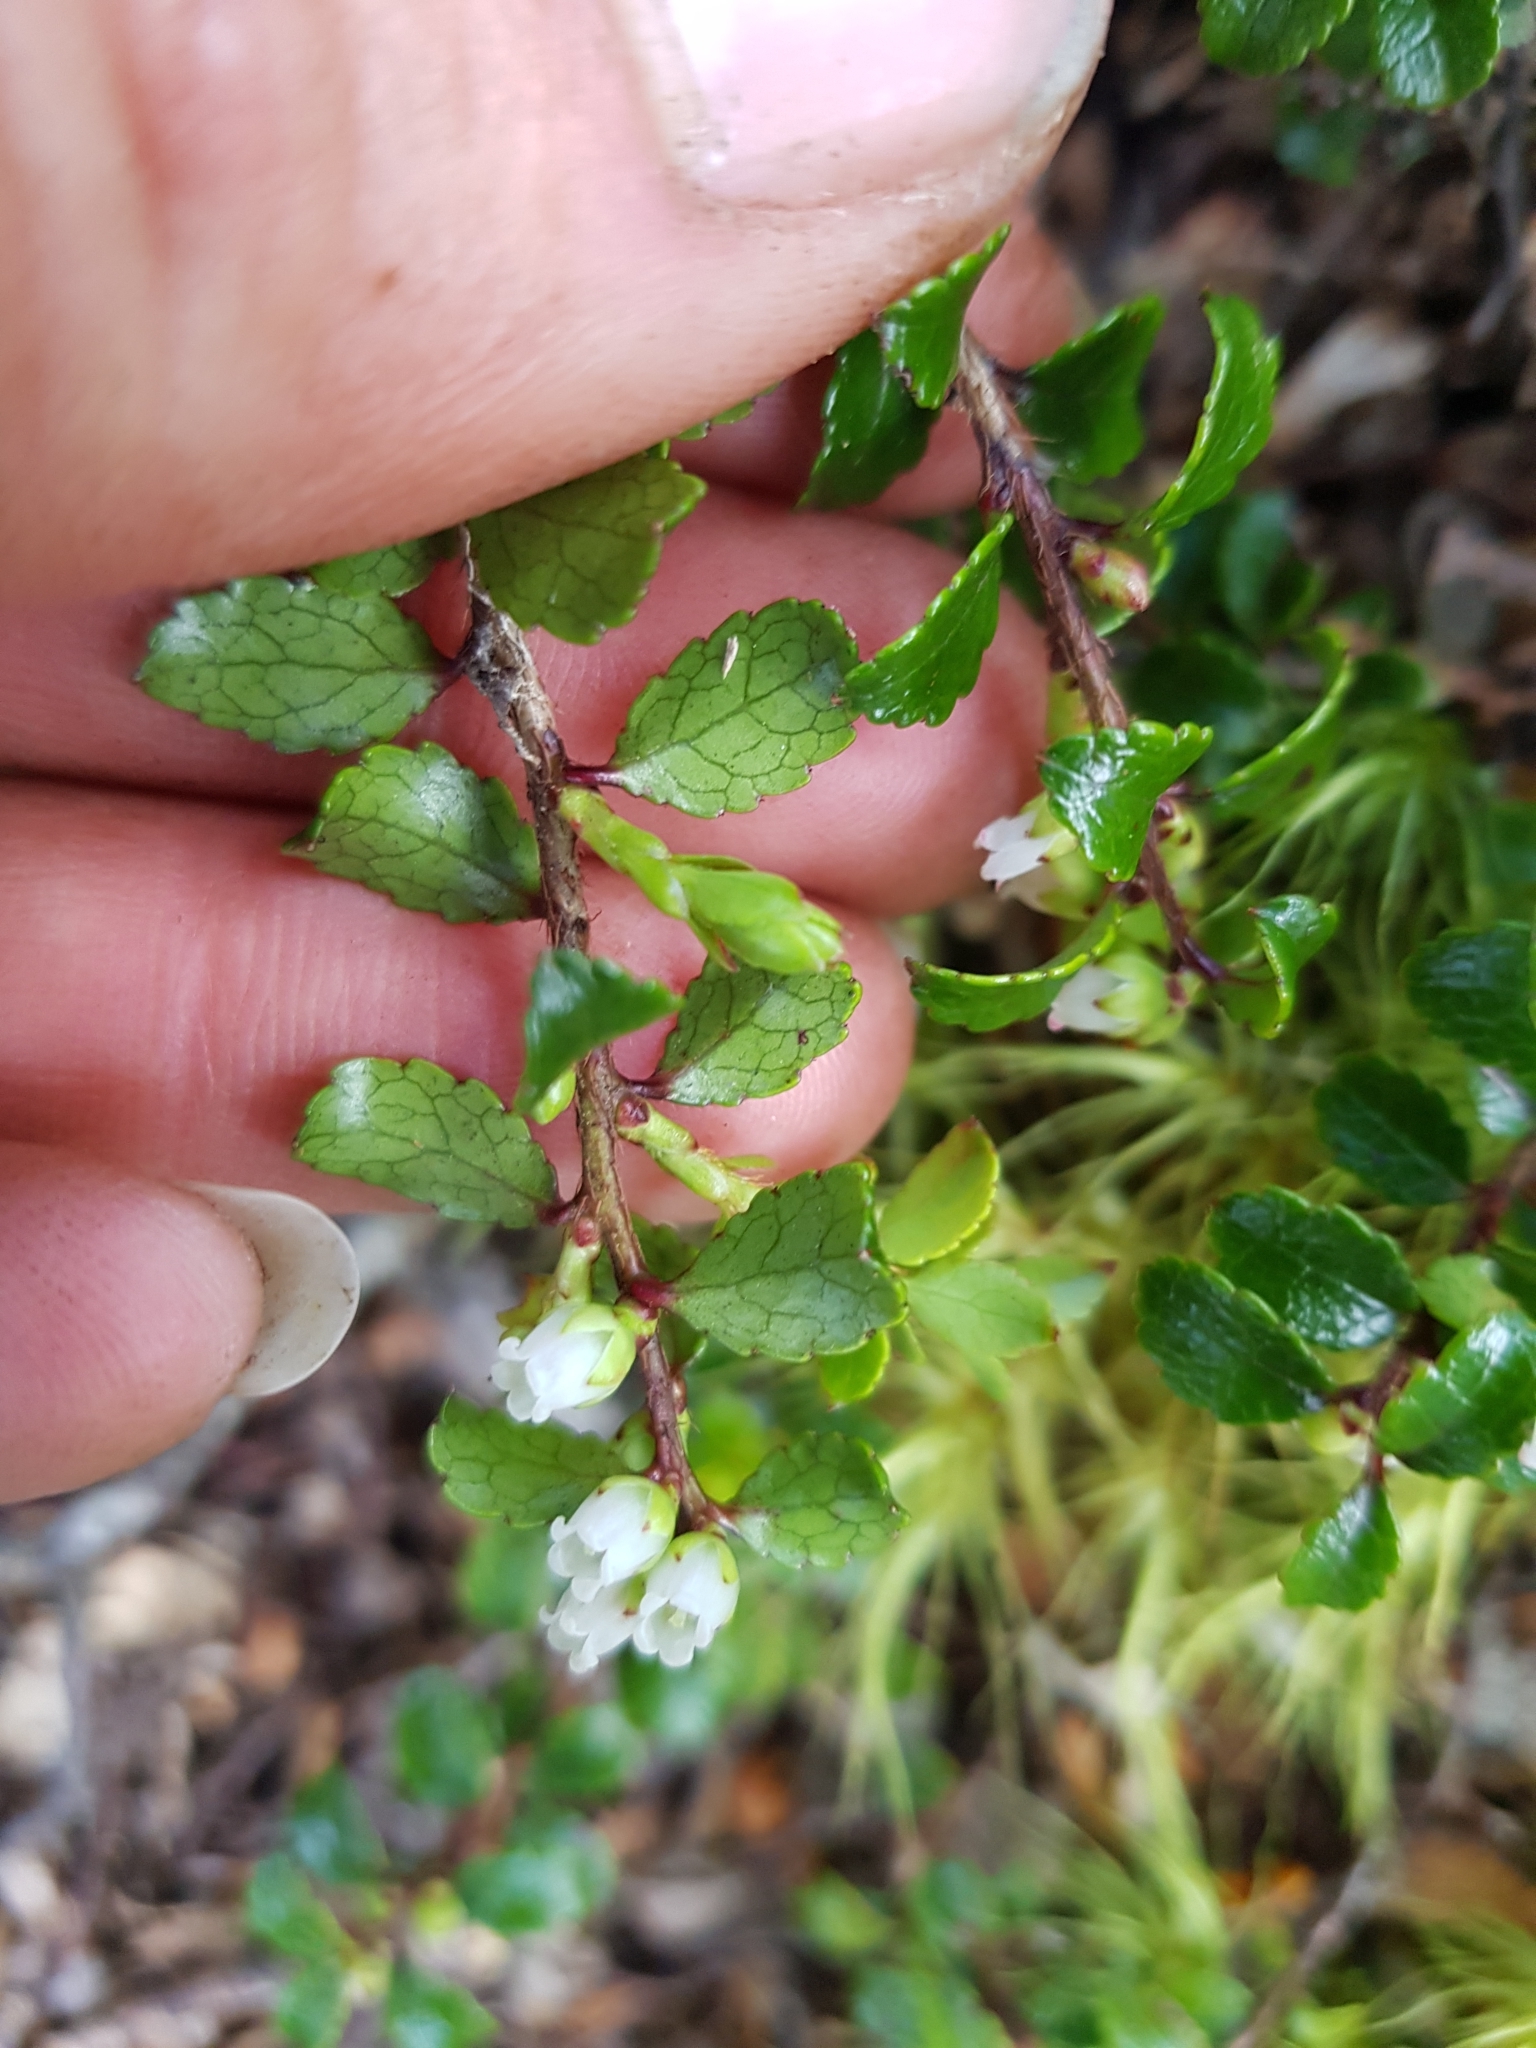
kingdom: Plantae
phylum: Tracheophyta
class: Magnoliopsida
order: Ericales
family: Ericaceae
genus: Gaultheria
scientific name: Gaultheria depressa
